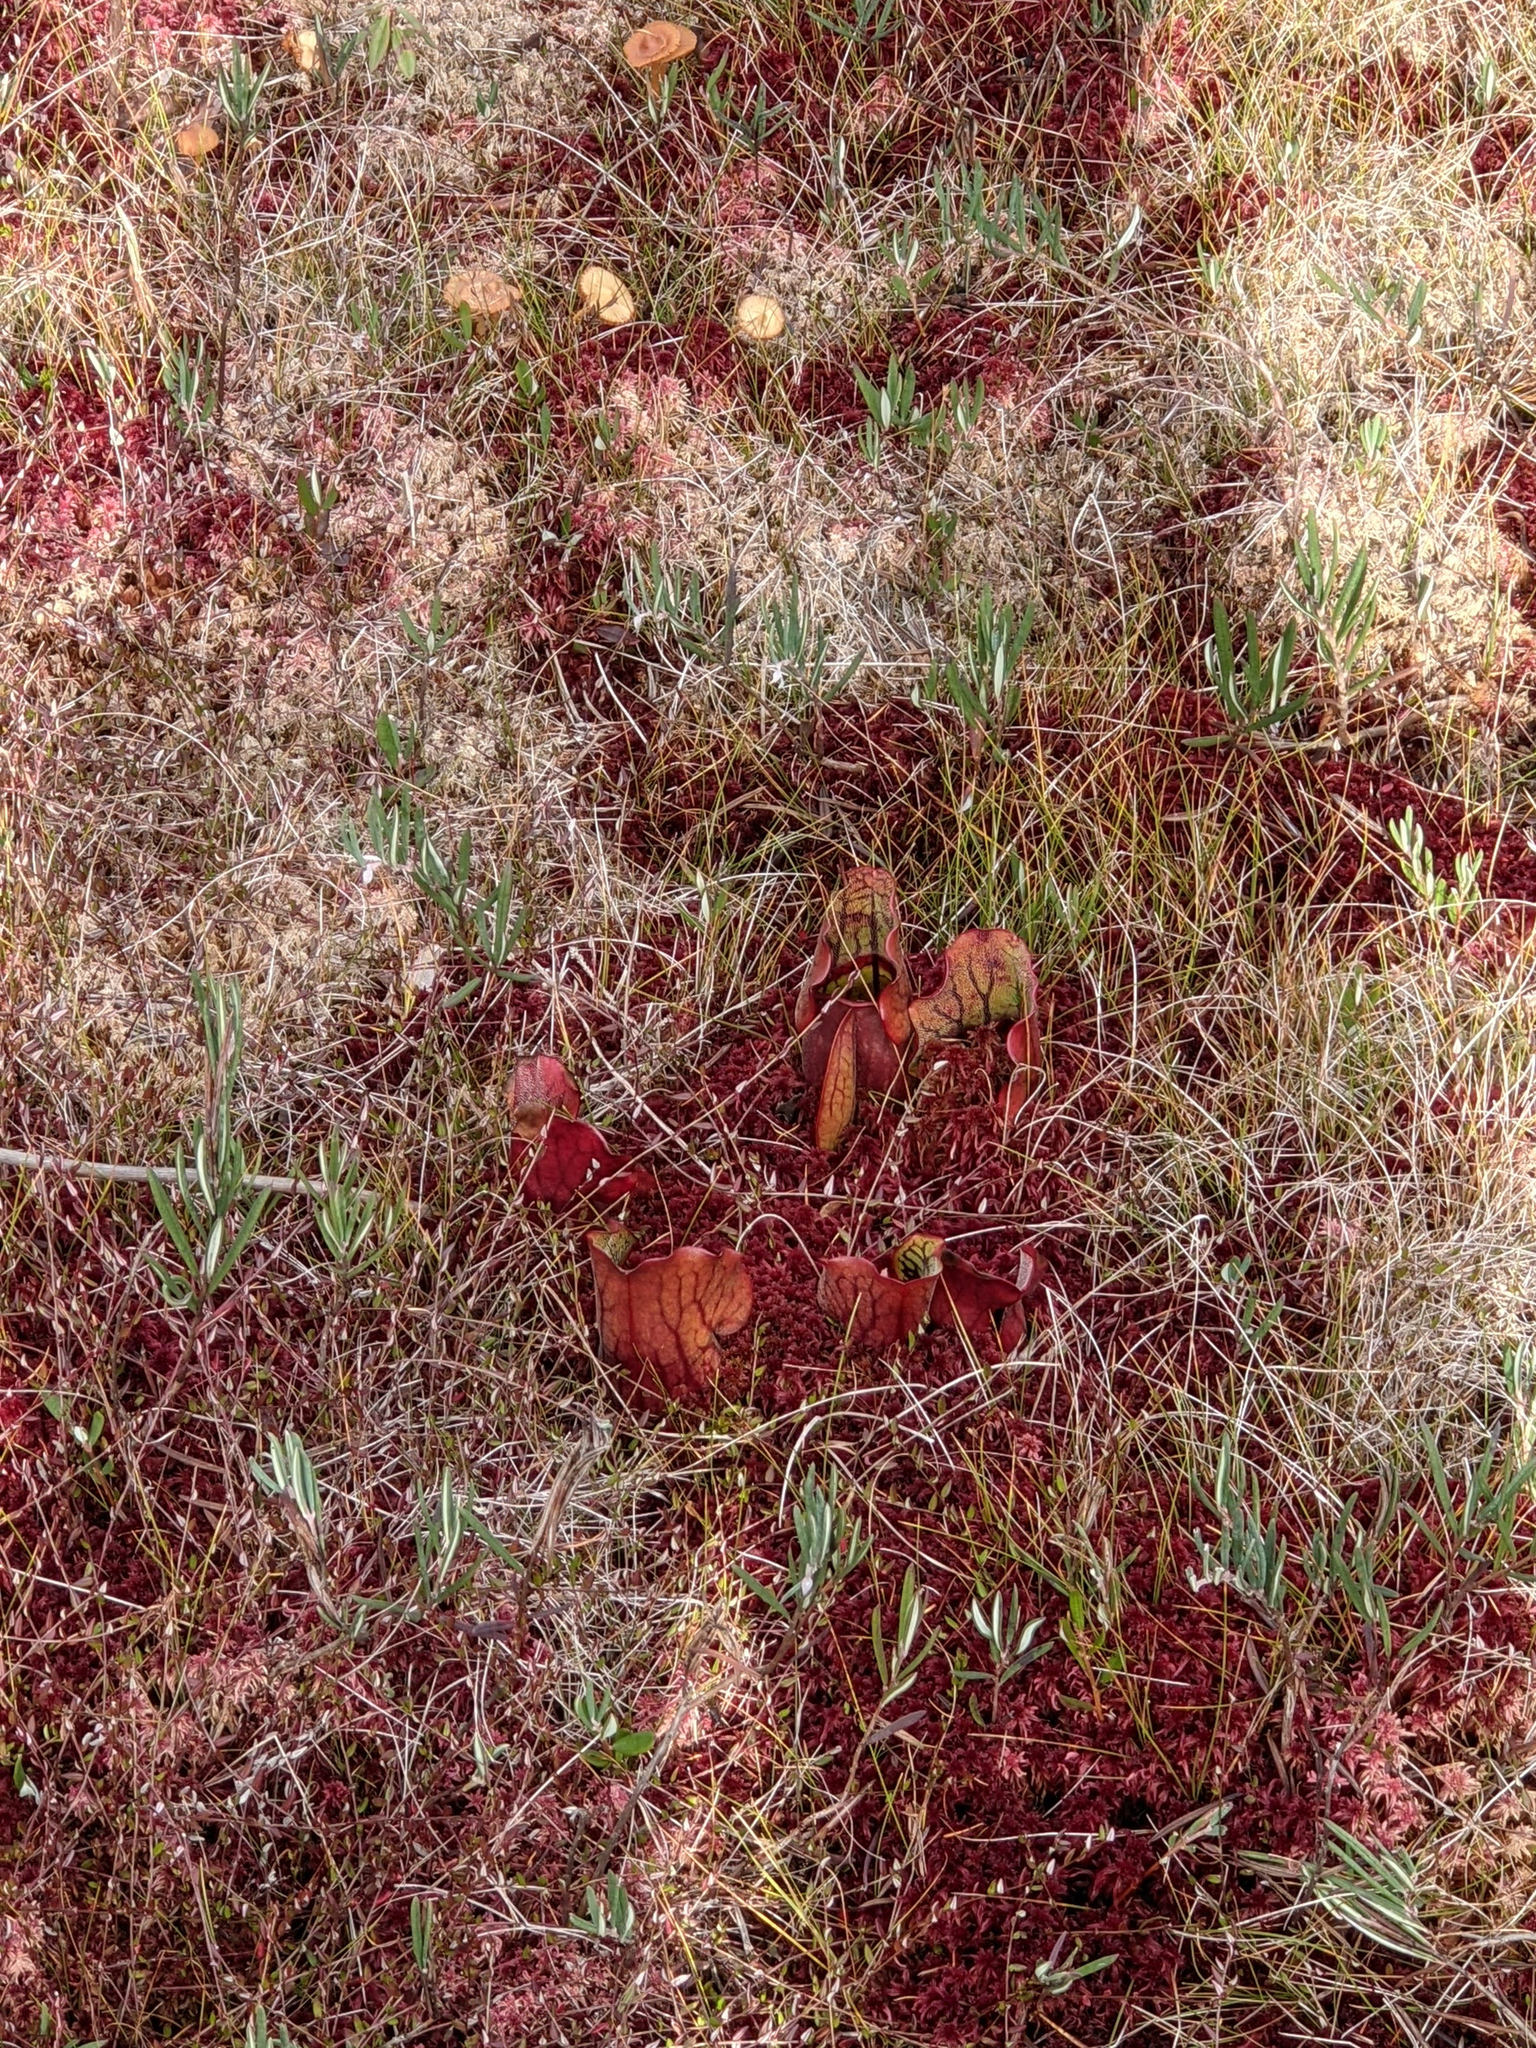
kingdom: Plantae
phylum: Tracheophyta
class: Magnoliopsida
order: Ericales
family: Sarraceniaceae
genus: Sarracenia
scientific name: Sarracenia purpurea
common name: Pitcherplant
